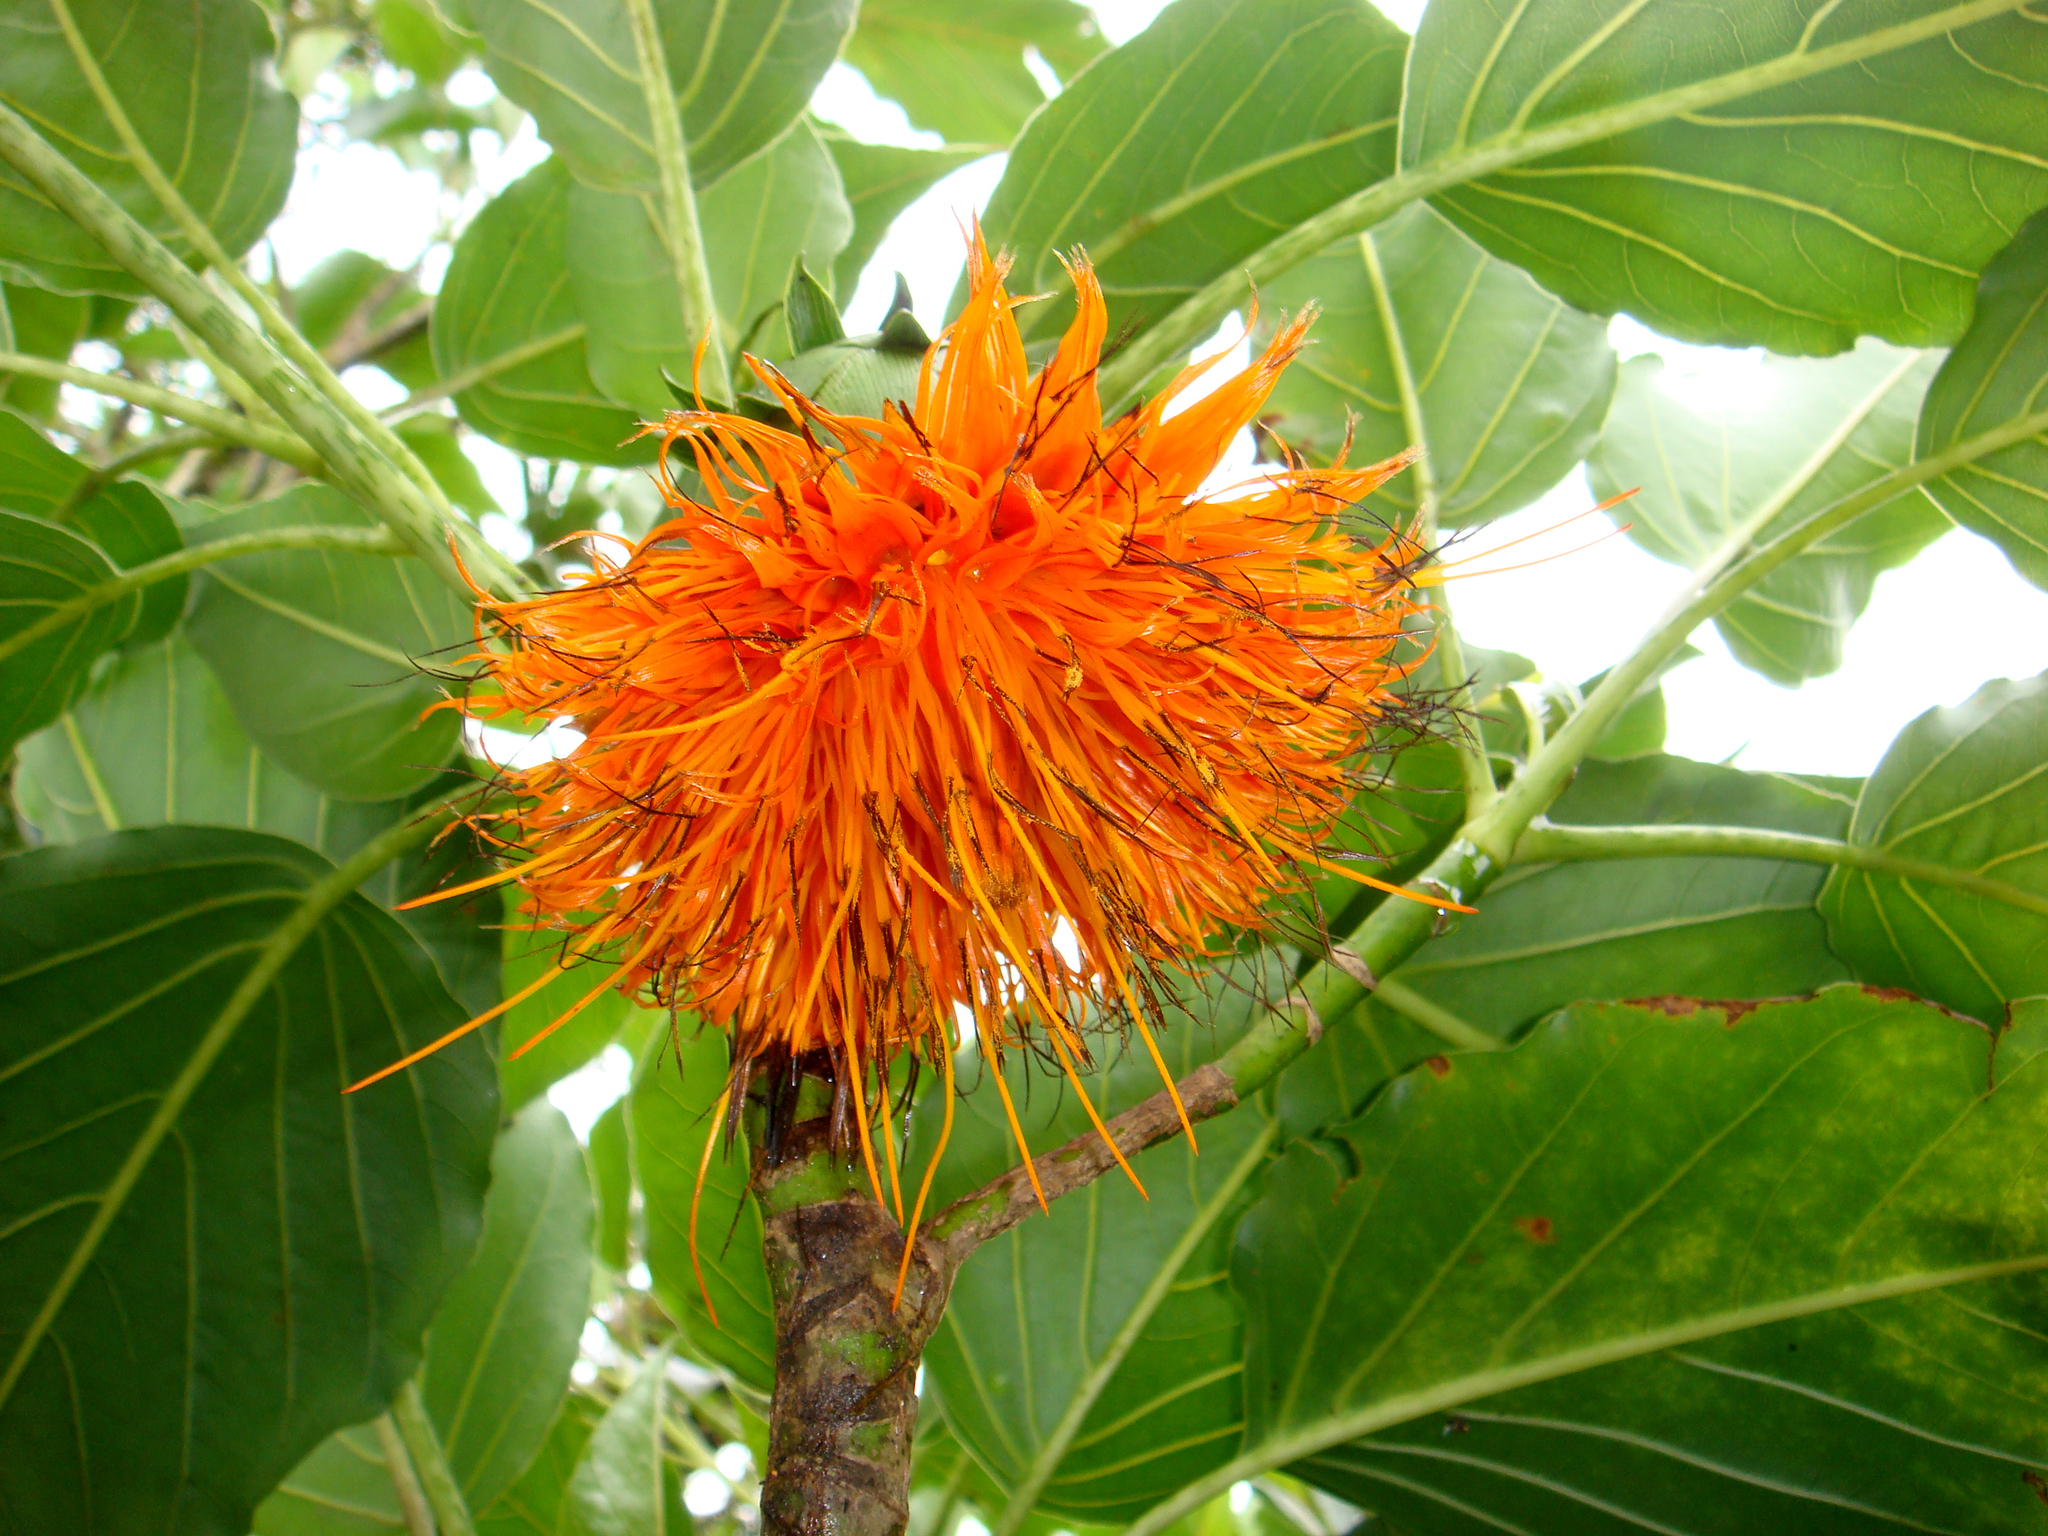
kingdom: Plantae
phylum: Tracheophyta
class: Magnoliopsida
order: Asterales
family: Asteraceae
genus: Fitchia
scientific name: Fitchia speciosa
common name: Burr daisytree
